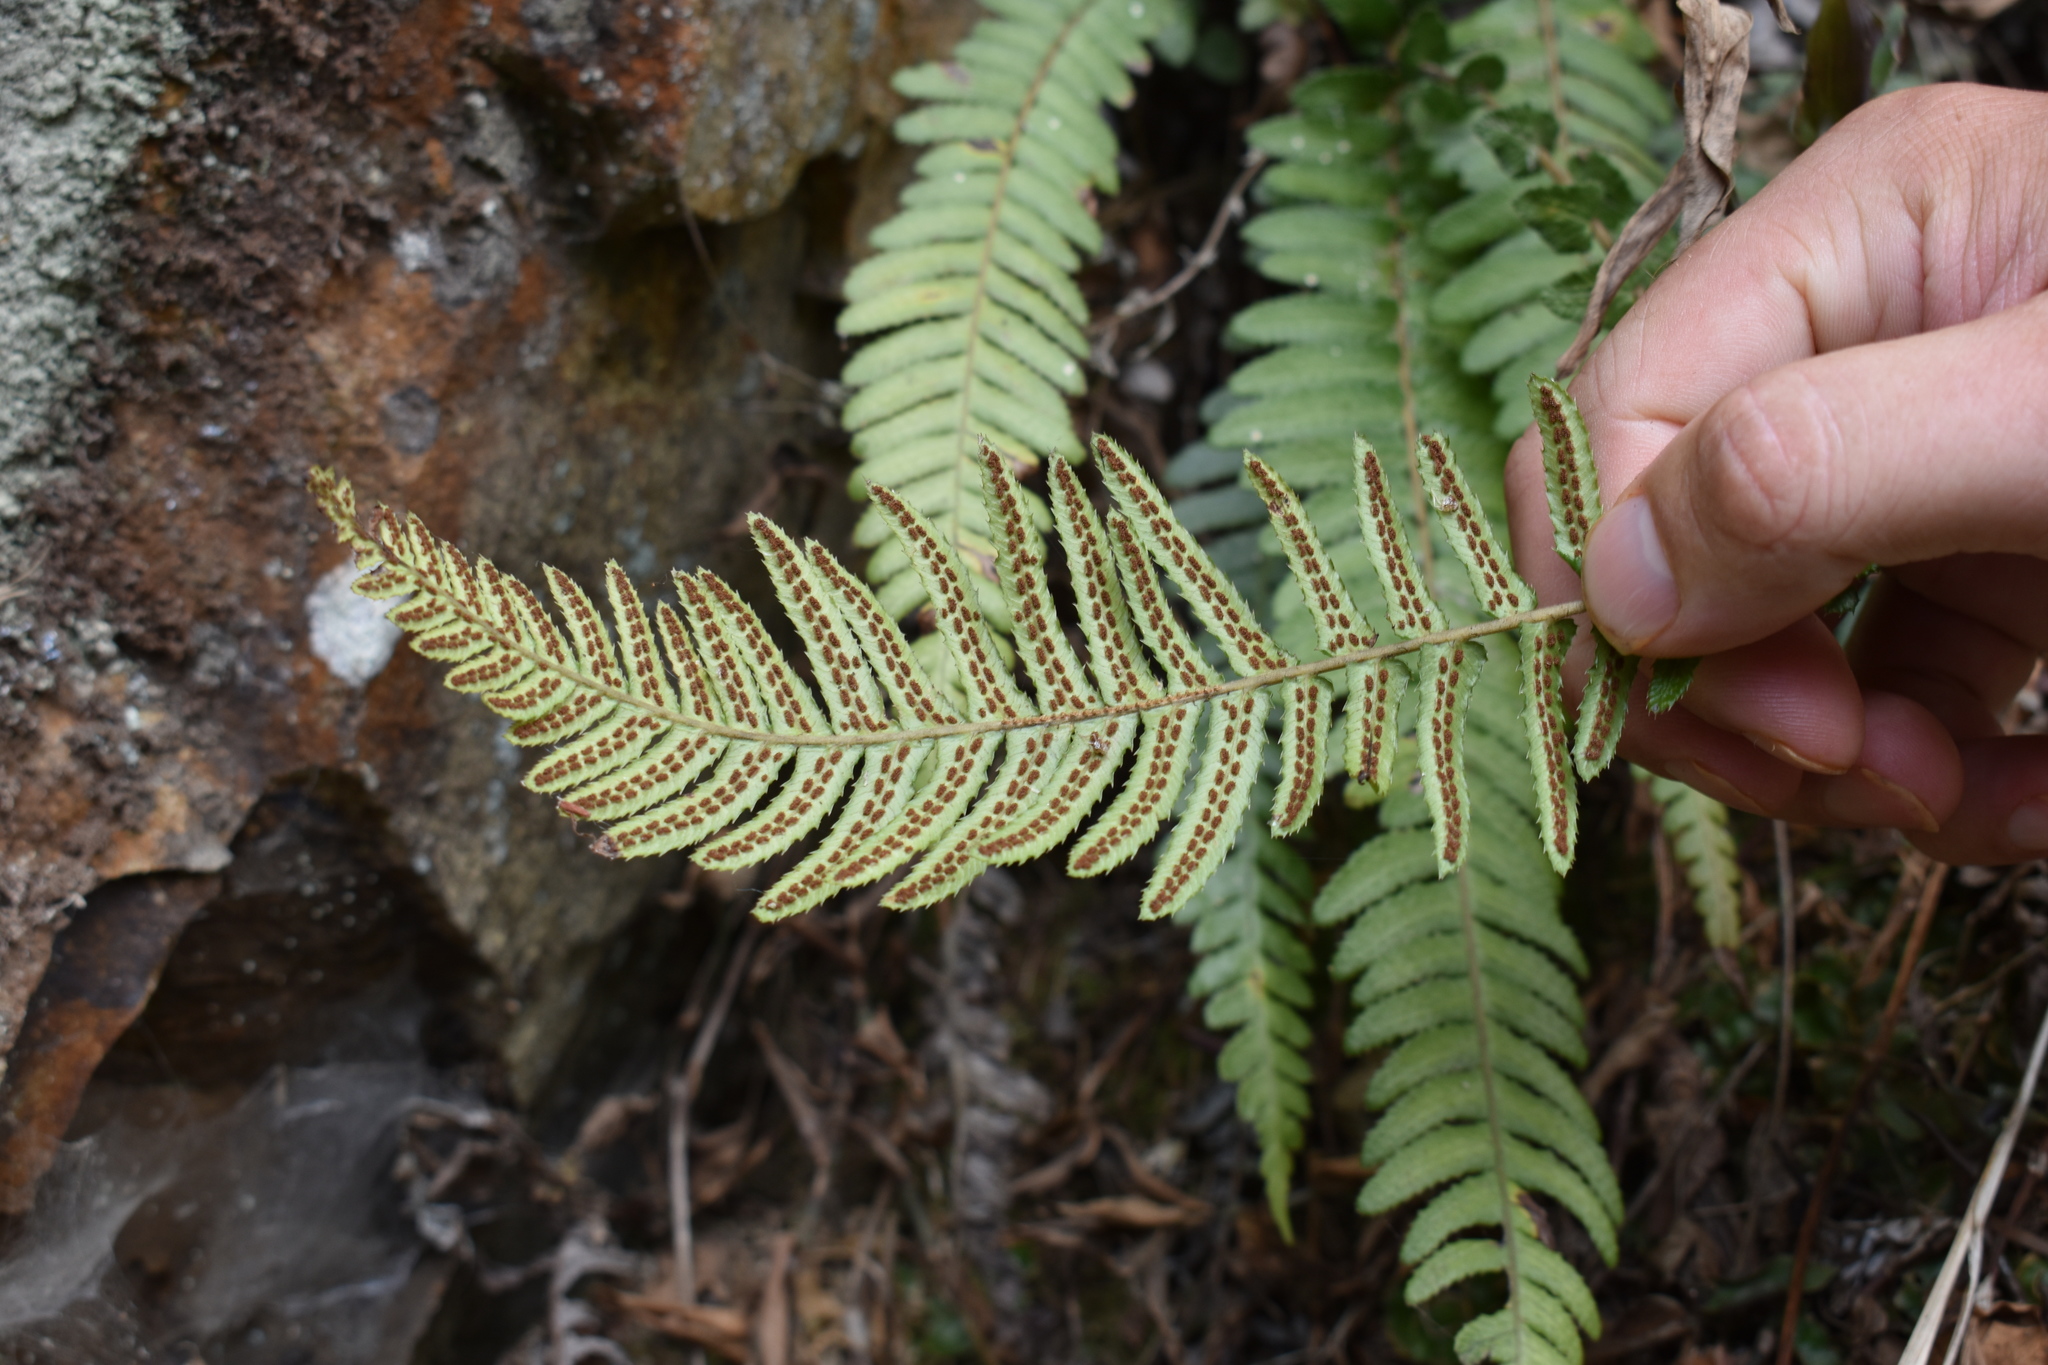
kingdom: Plantae
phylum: Tracheophyta
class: Polypodiopsida
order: Polypodiales
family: Blechnaceae
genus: Doodia
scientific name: Doodia australis
